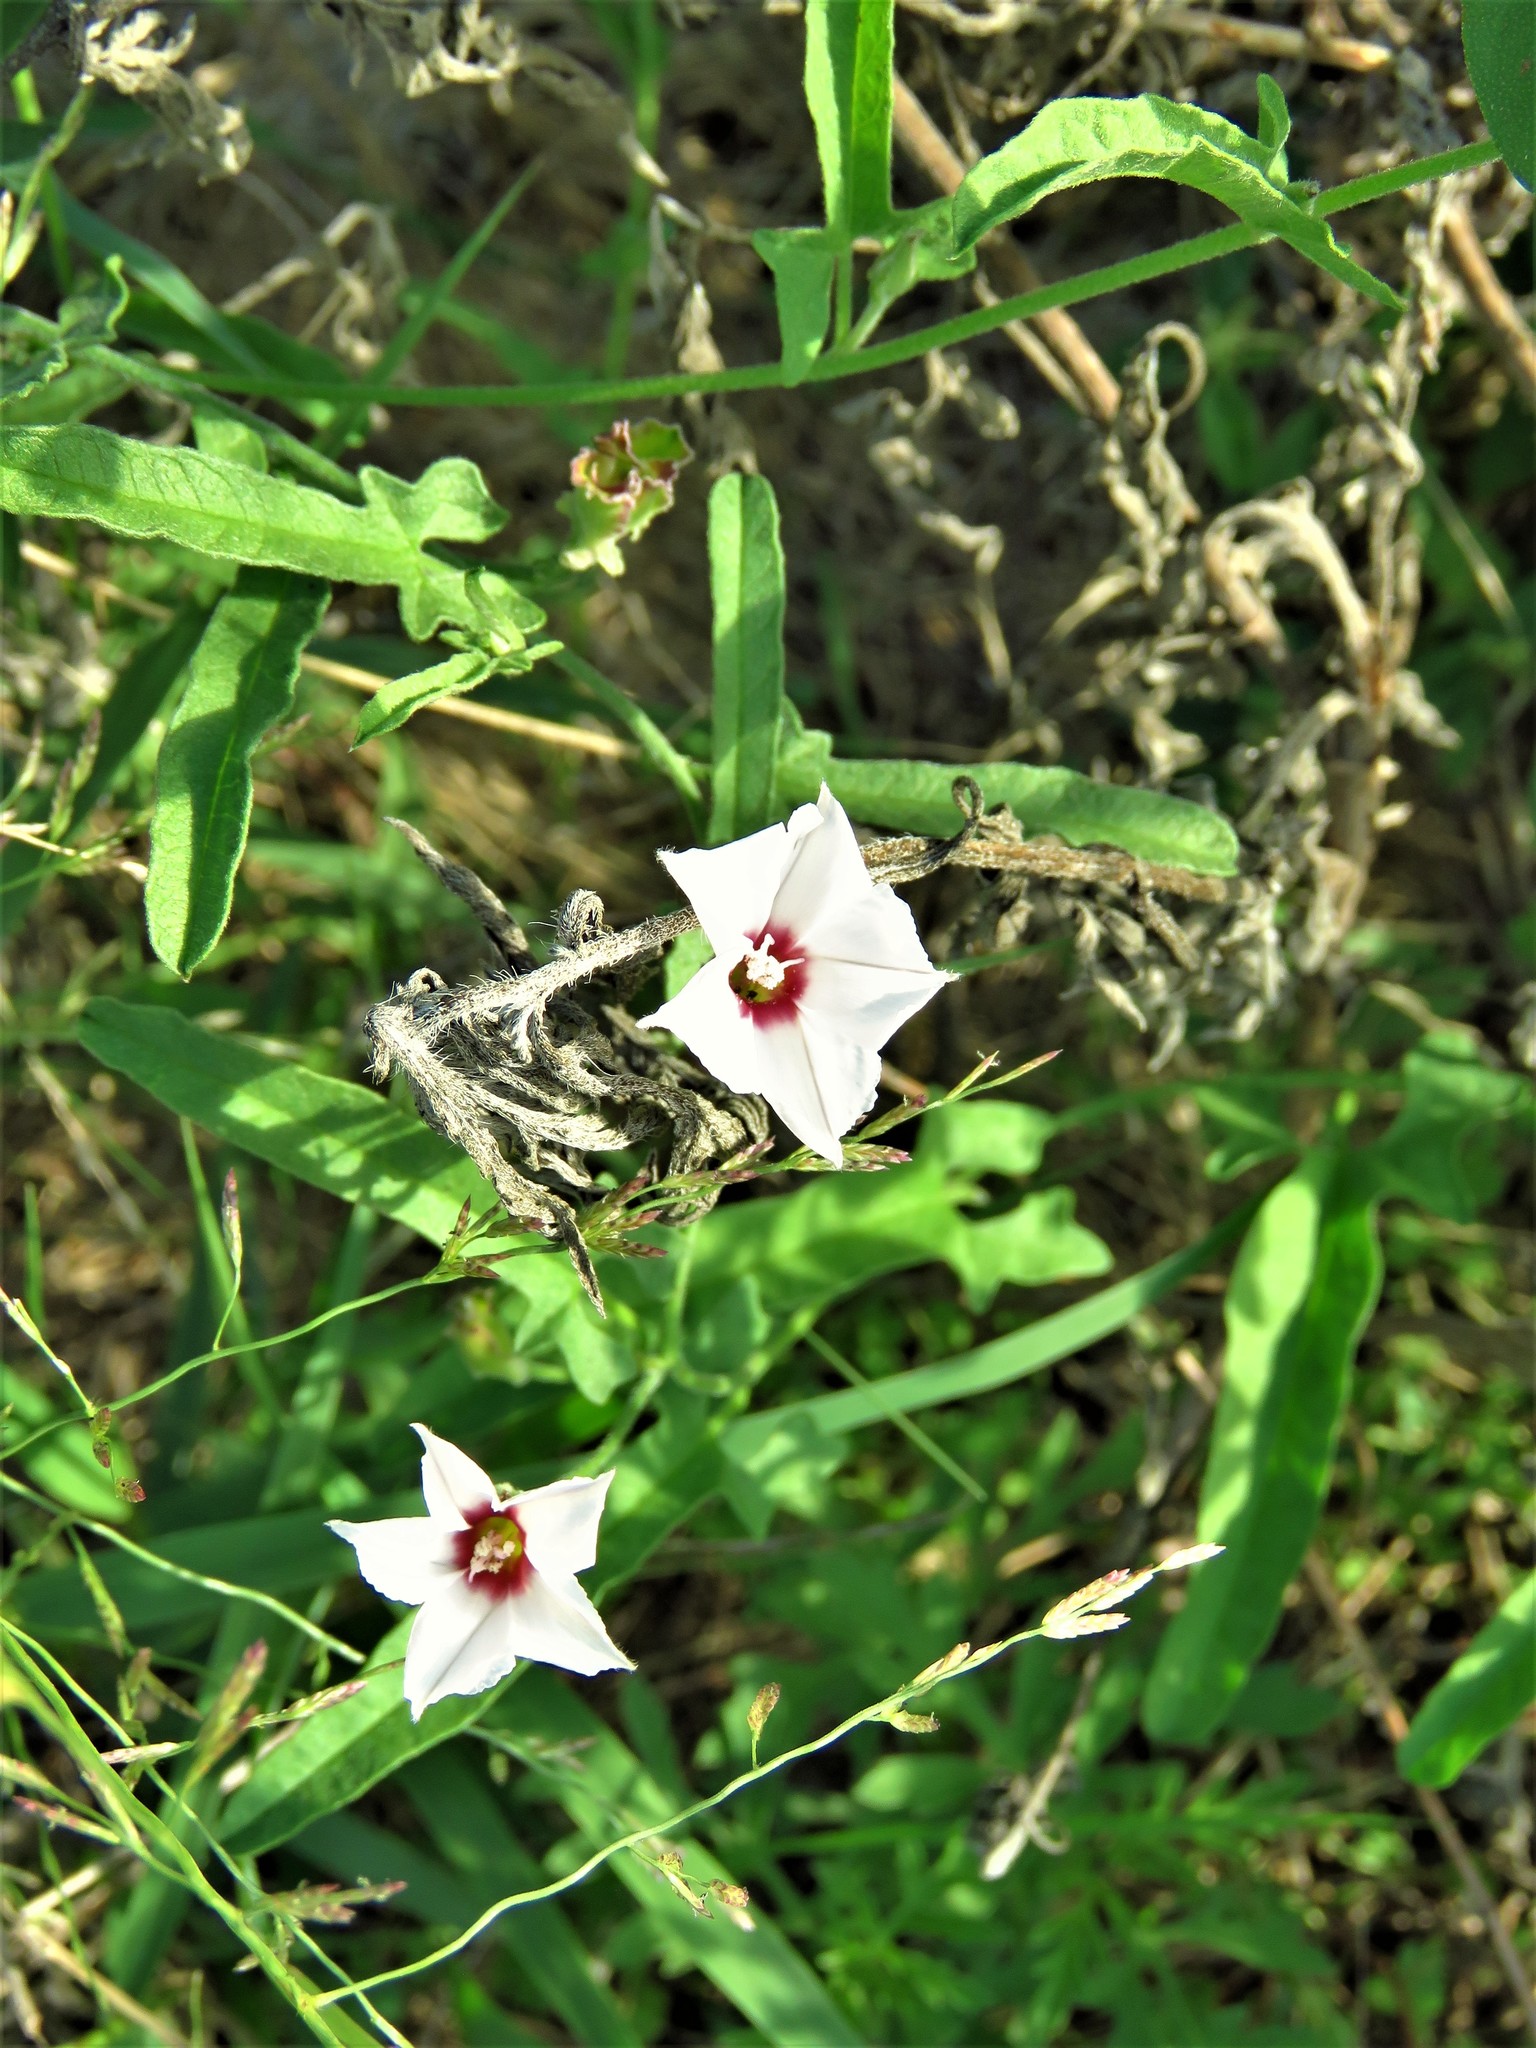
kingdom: Plantae
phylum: Tracheophyta
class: Magnoliopsida
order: Solanales
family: Convolvulaceae
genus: Convolvulus
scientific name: Convolvulus equitans
